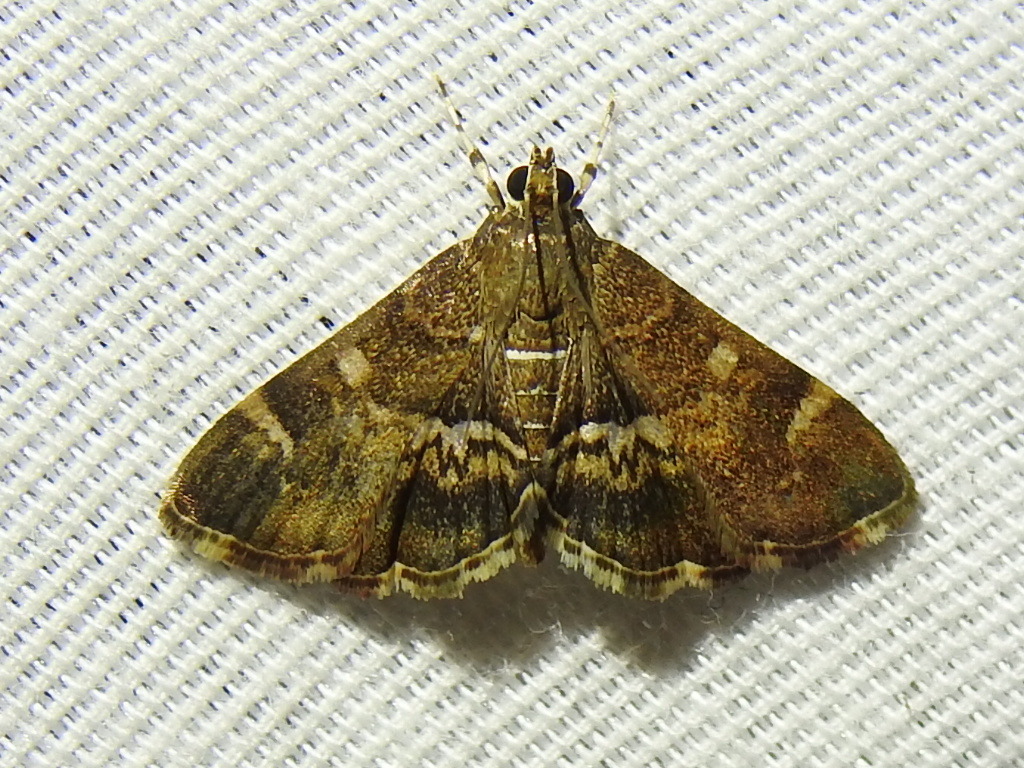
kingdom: Animalia
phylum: Arthropoda
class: Insecta
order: Lepidoptera
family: Crambidae
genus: Hymenia
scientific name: Hymenia perspectalis
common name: Spotted beet webworm
